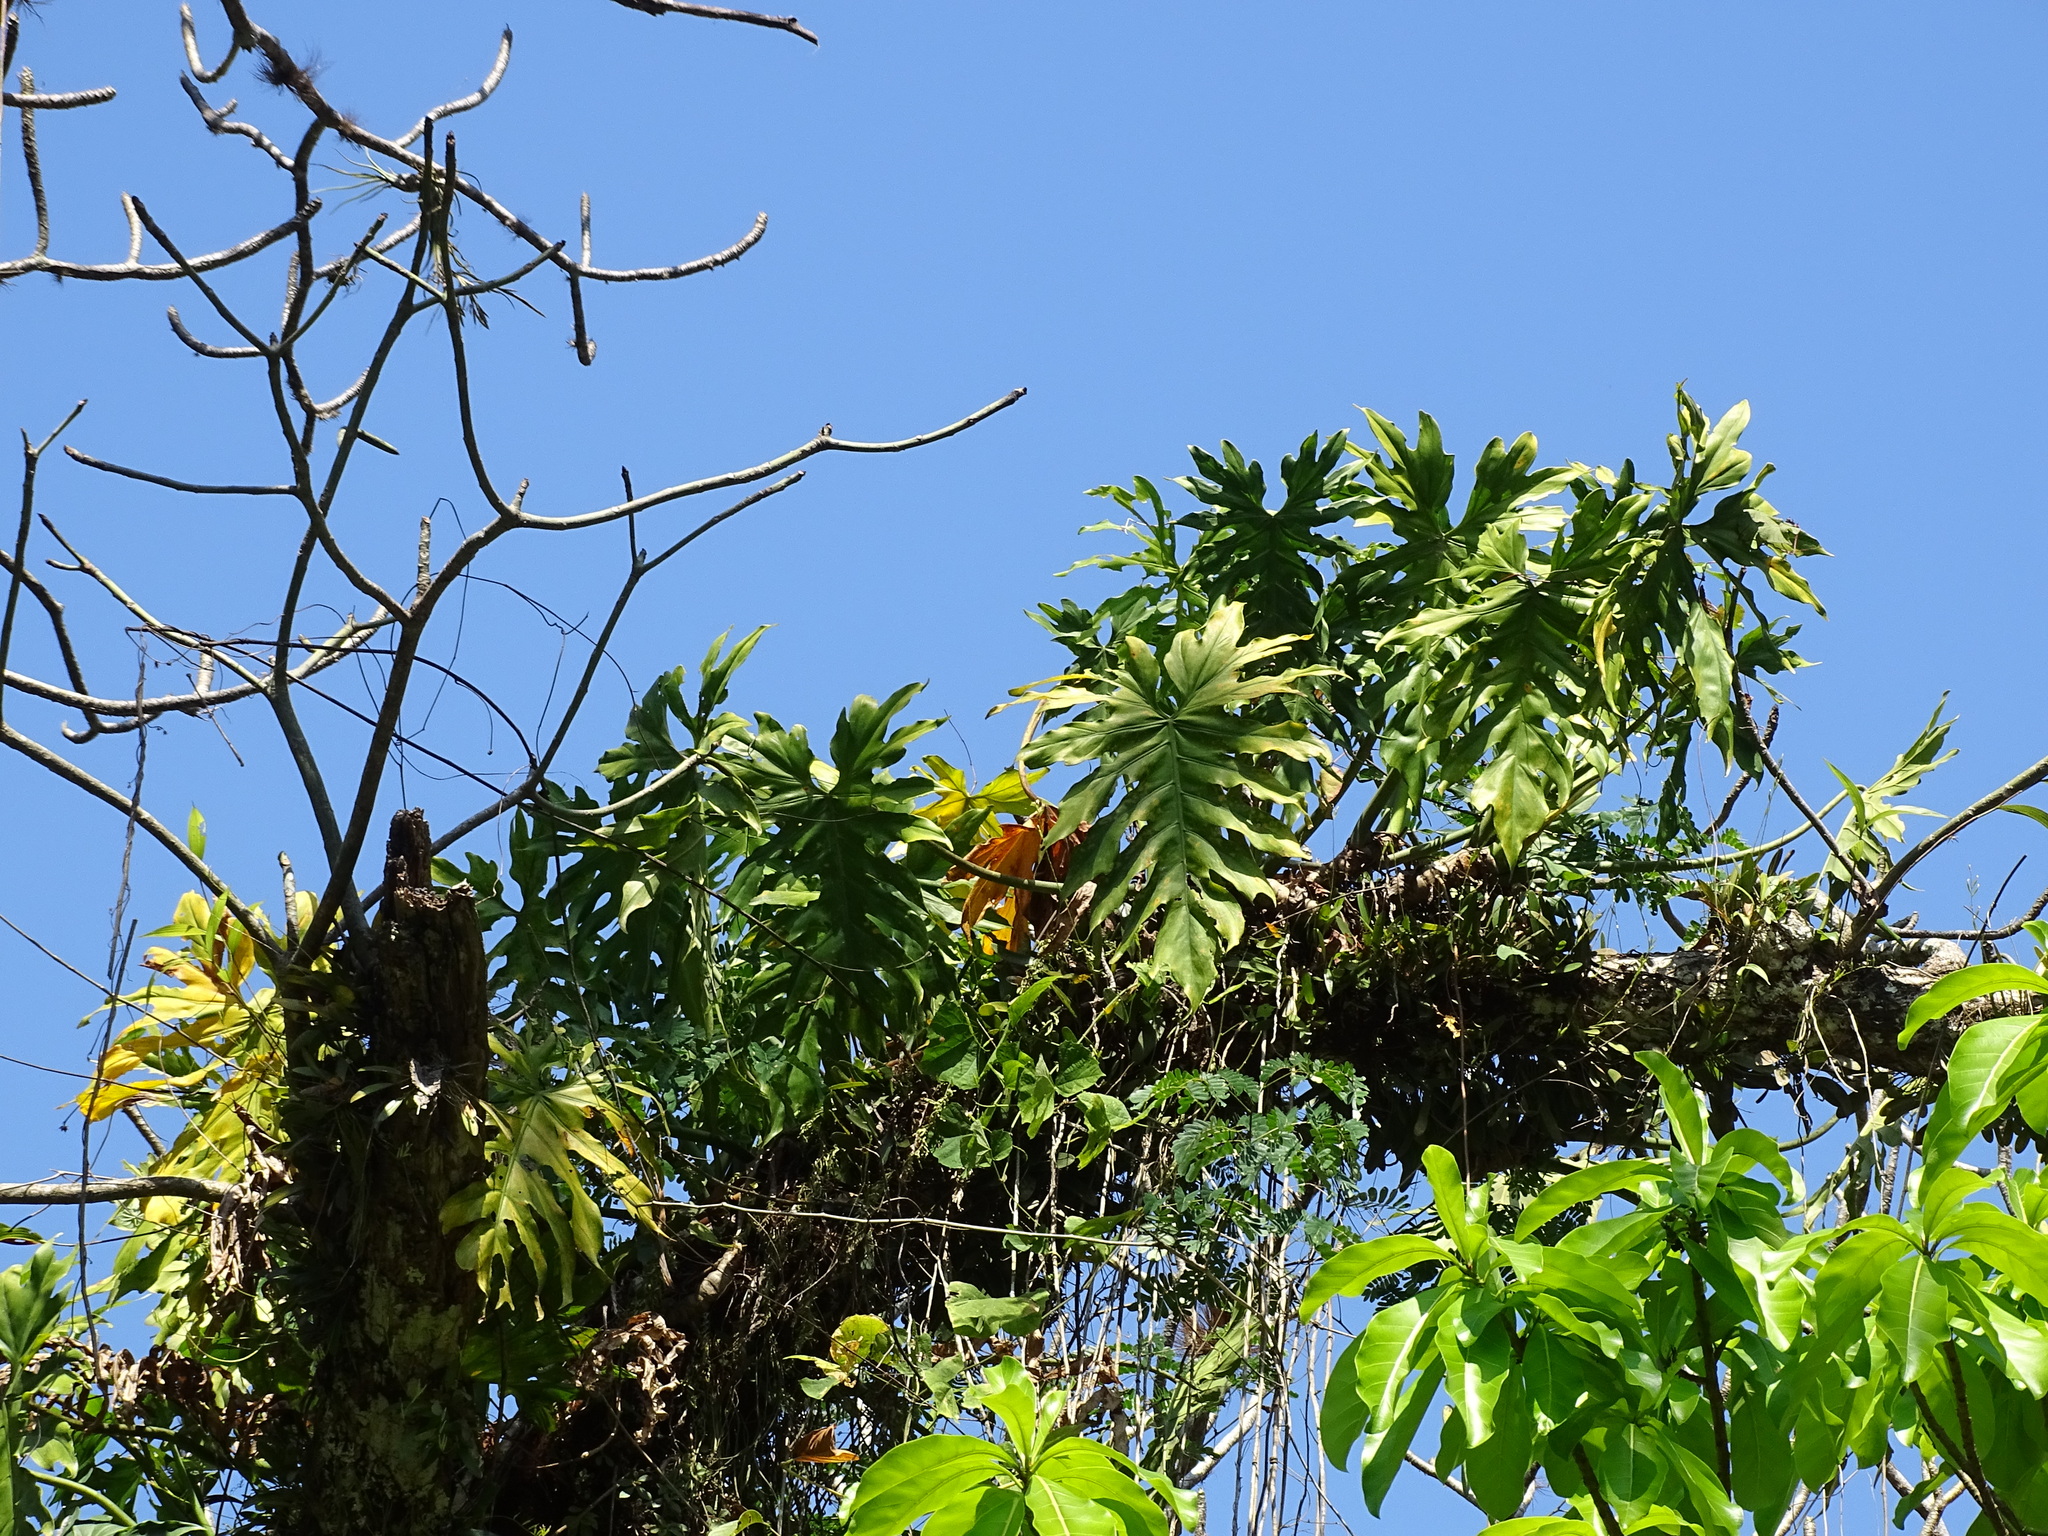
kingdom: Plantae
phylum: Tracheophyta
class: Liliopsida
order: Alismatales
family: Araceae
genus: Philodendron
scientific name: Philodendron radiatum
